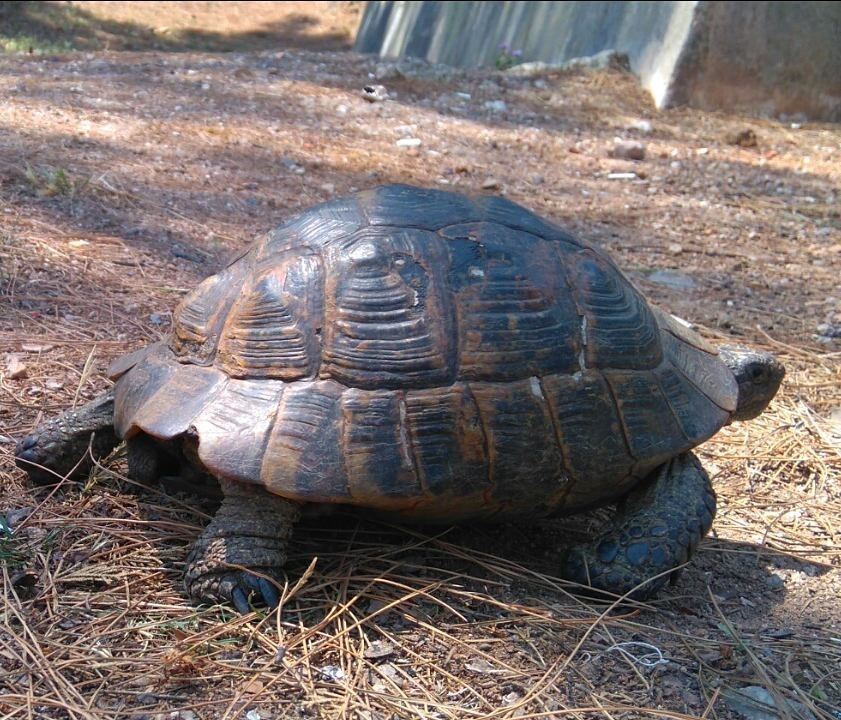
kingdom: Animalia
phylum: Chordata
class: Testudines
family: Testudinidae
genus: Testudo
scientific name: Testudo graeca
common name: Common tortoise
